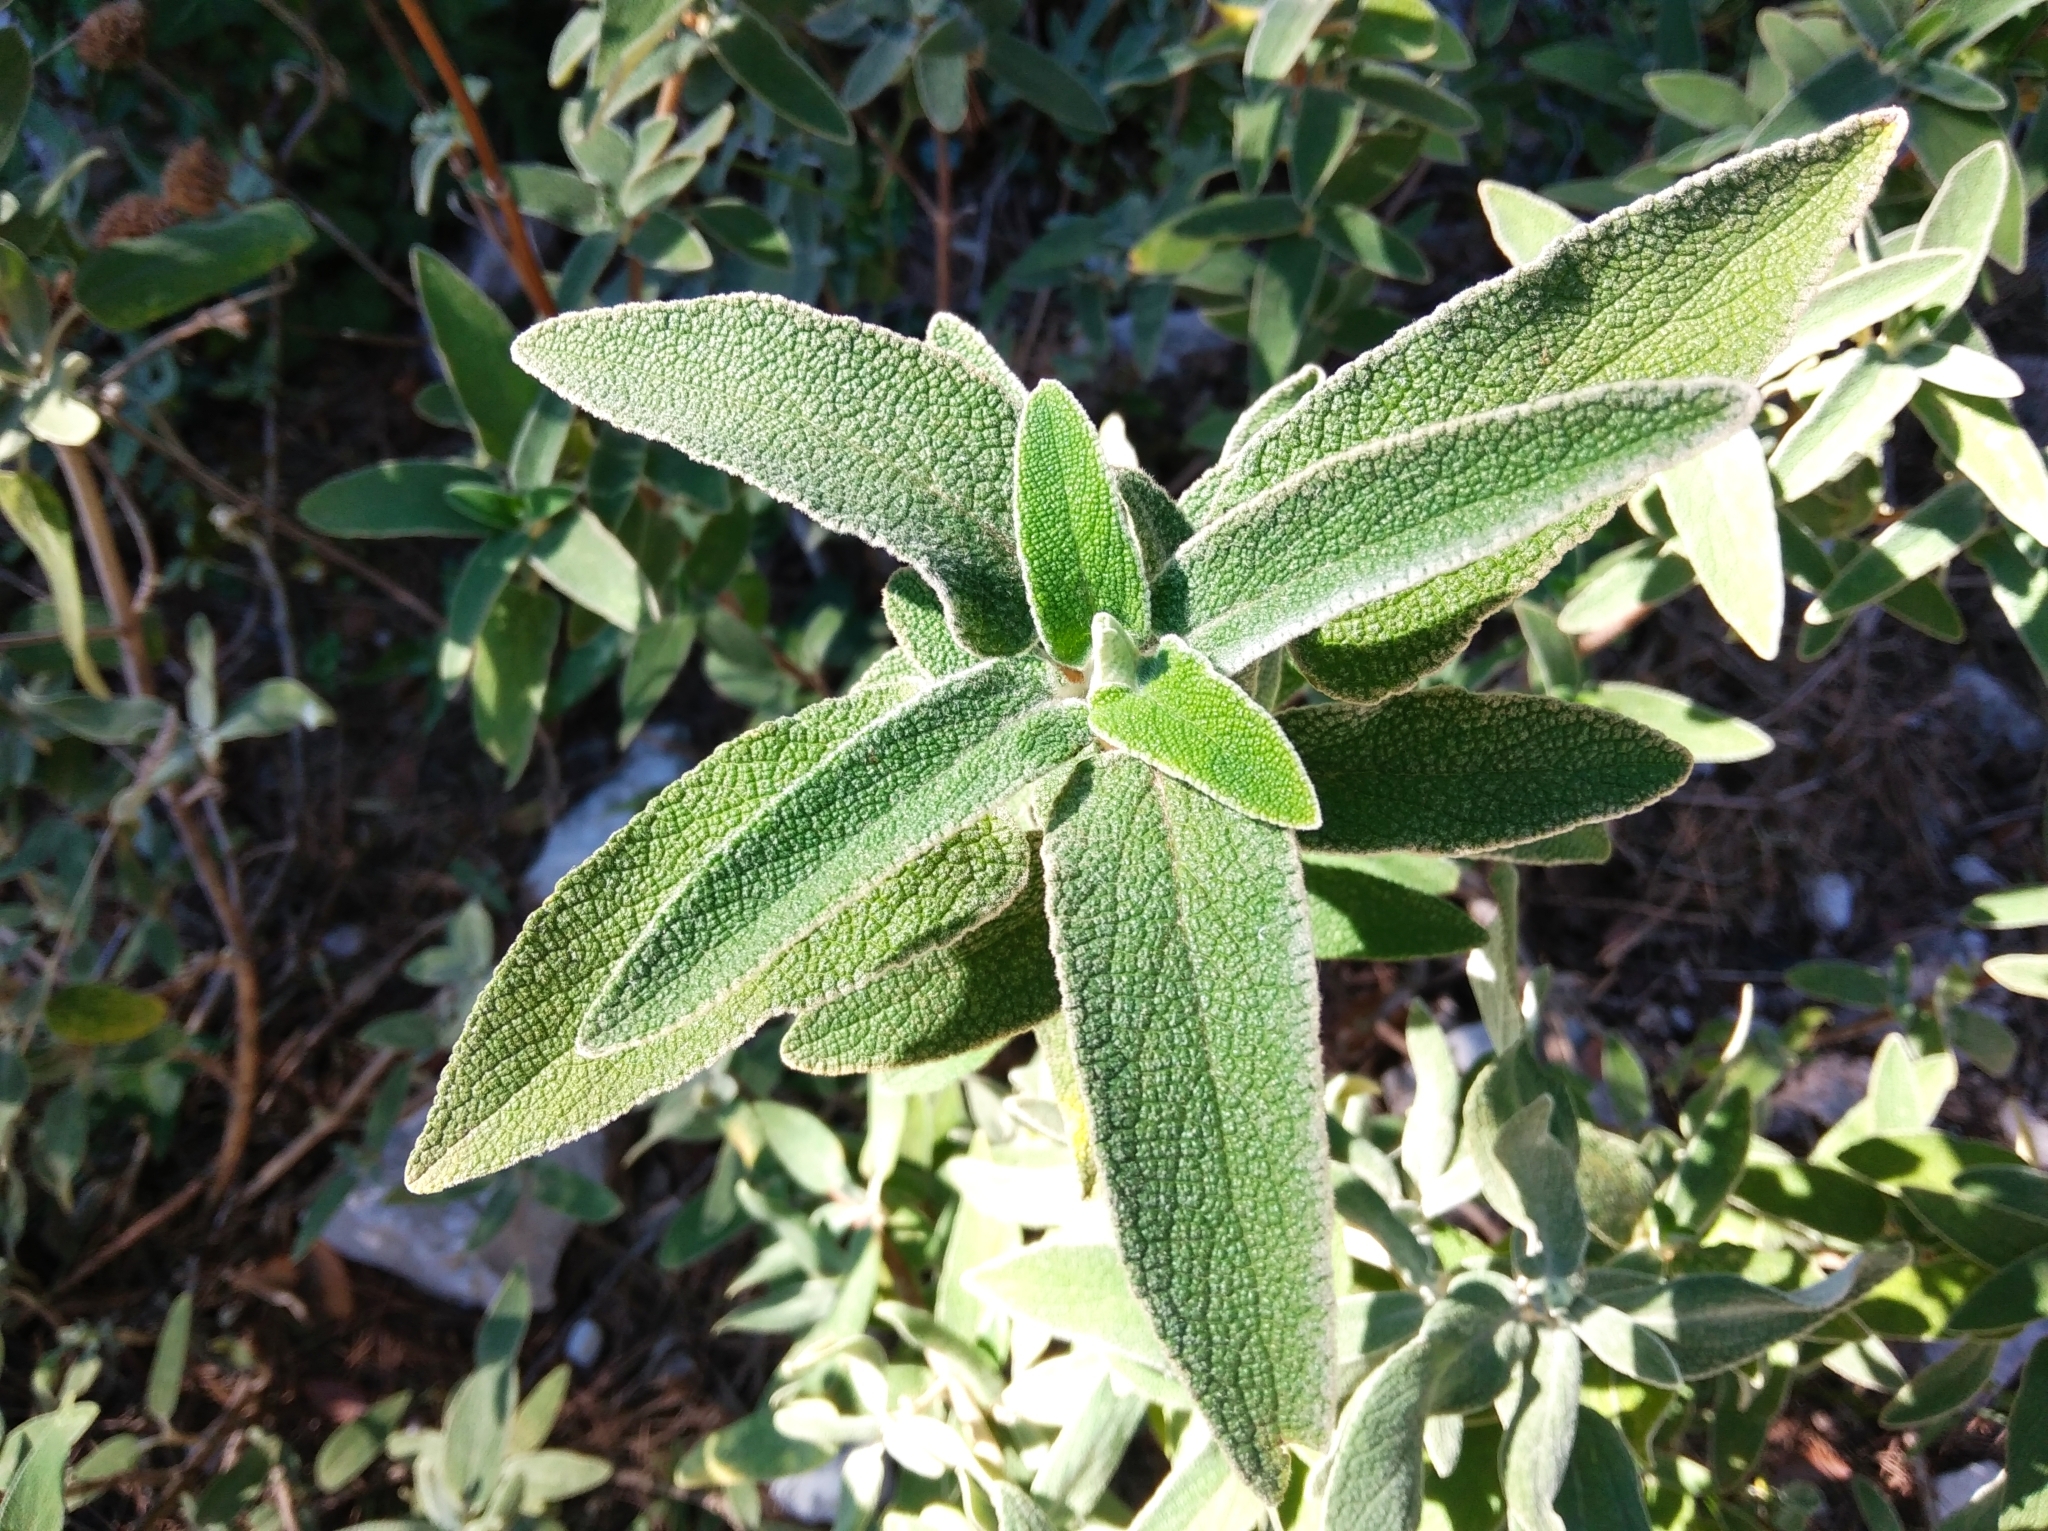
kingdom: Plantae
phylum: Tracheophyta
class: Magnoliopsida
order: Lamiales
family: Lamiaceae
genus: Phlomis
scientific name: Phlomis fruticosa
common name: Jerusalem sage
